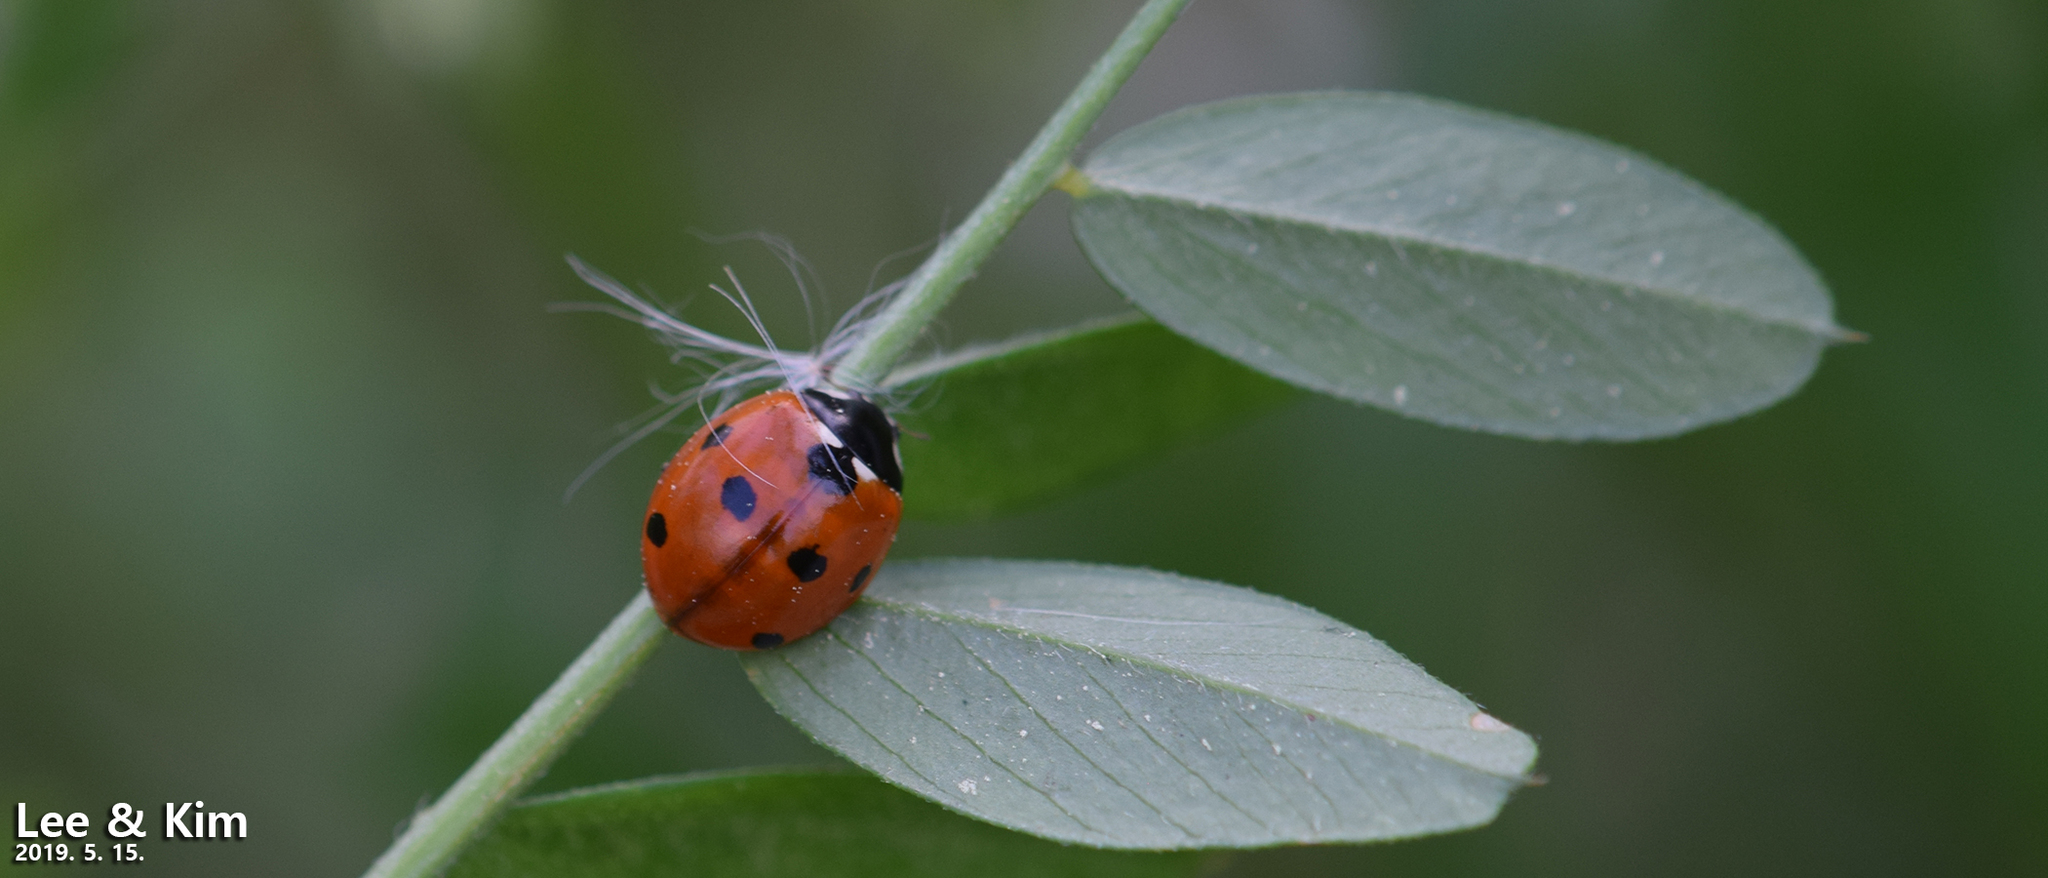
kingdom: Animalia
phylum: Arthropoda
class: Insecta
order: Coleoptera
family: Coccinellidae
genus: Coccinella
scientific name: Coccinella septempunctata
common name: Sevenspotted lady beetle
